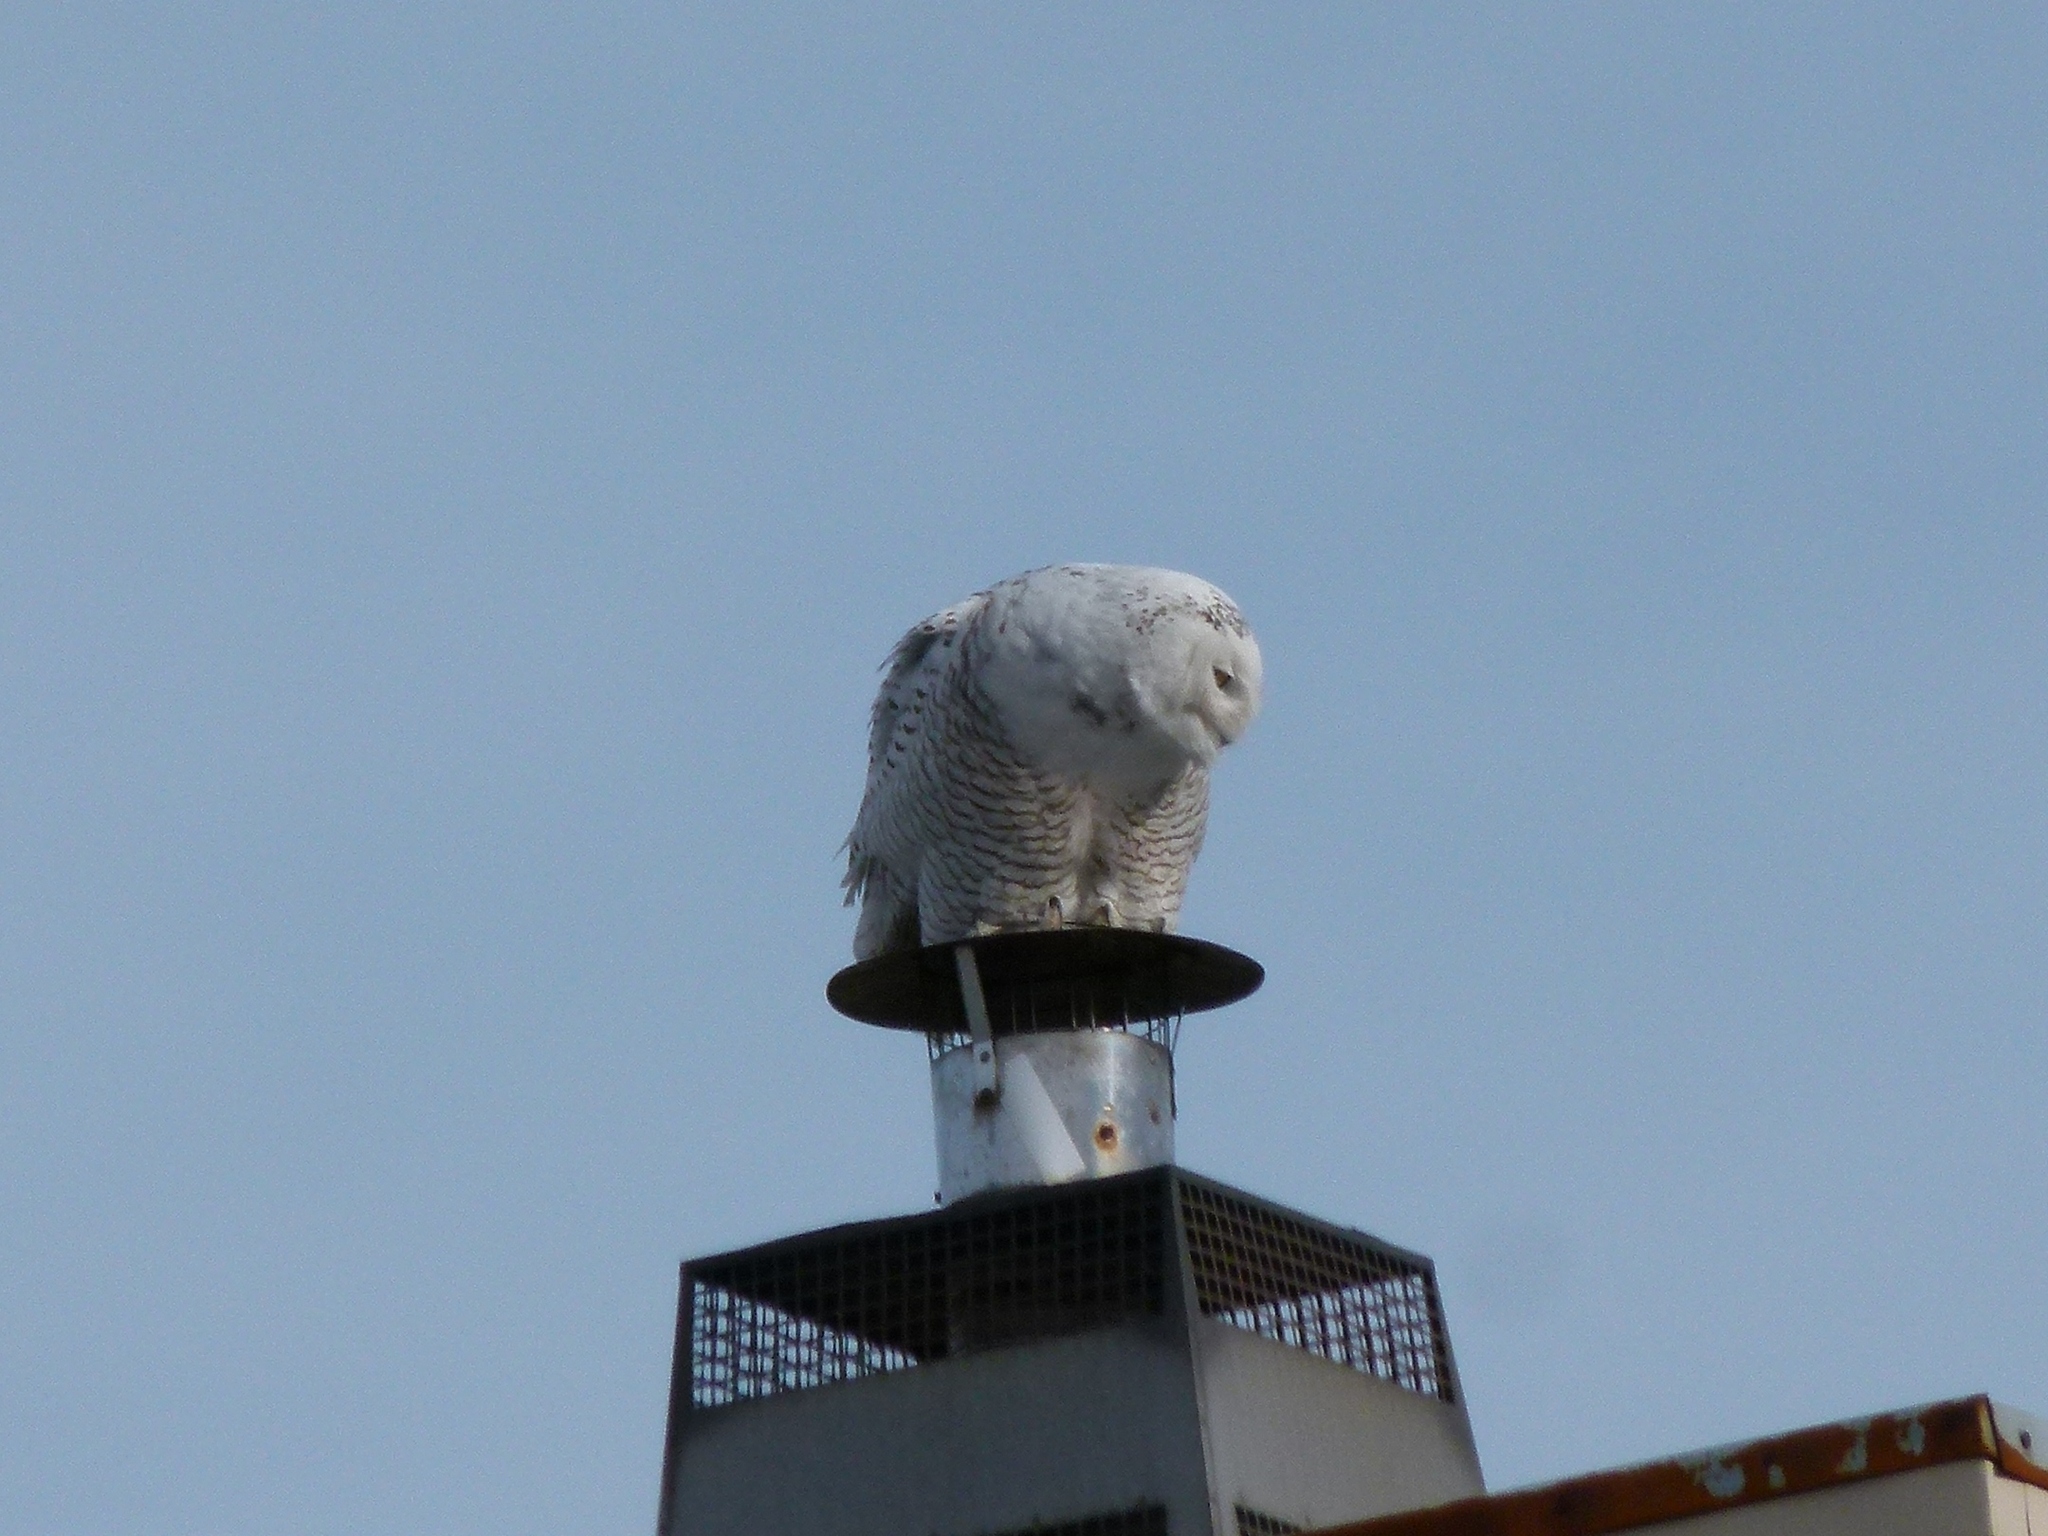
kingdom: Animalia
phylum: Chordata
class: Aves
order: Strigiformes
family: Strigidae
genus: Bubo
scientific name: Bubo scandiacus
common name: Snowy owl
